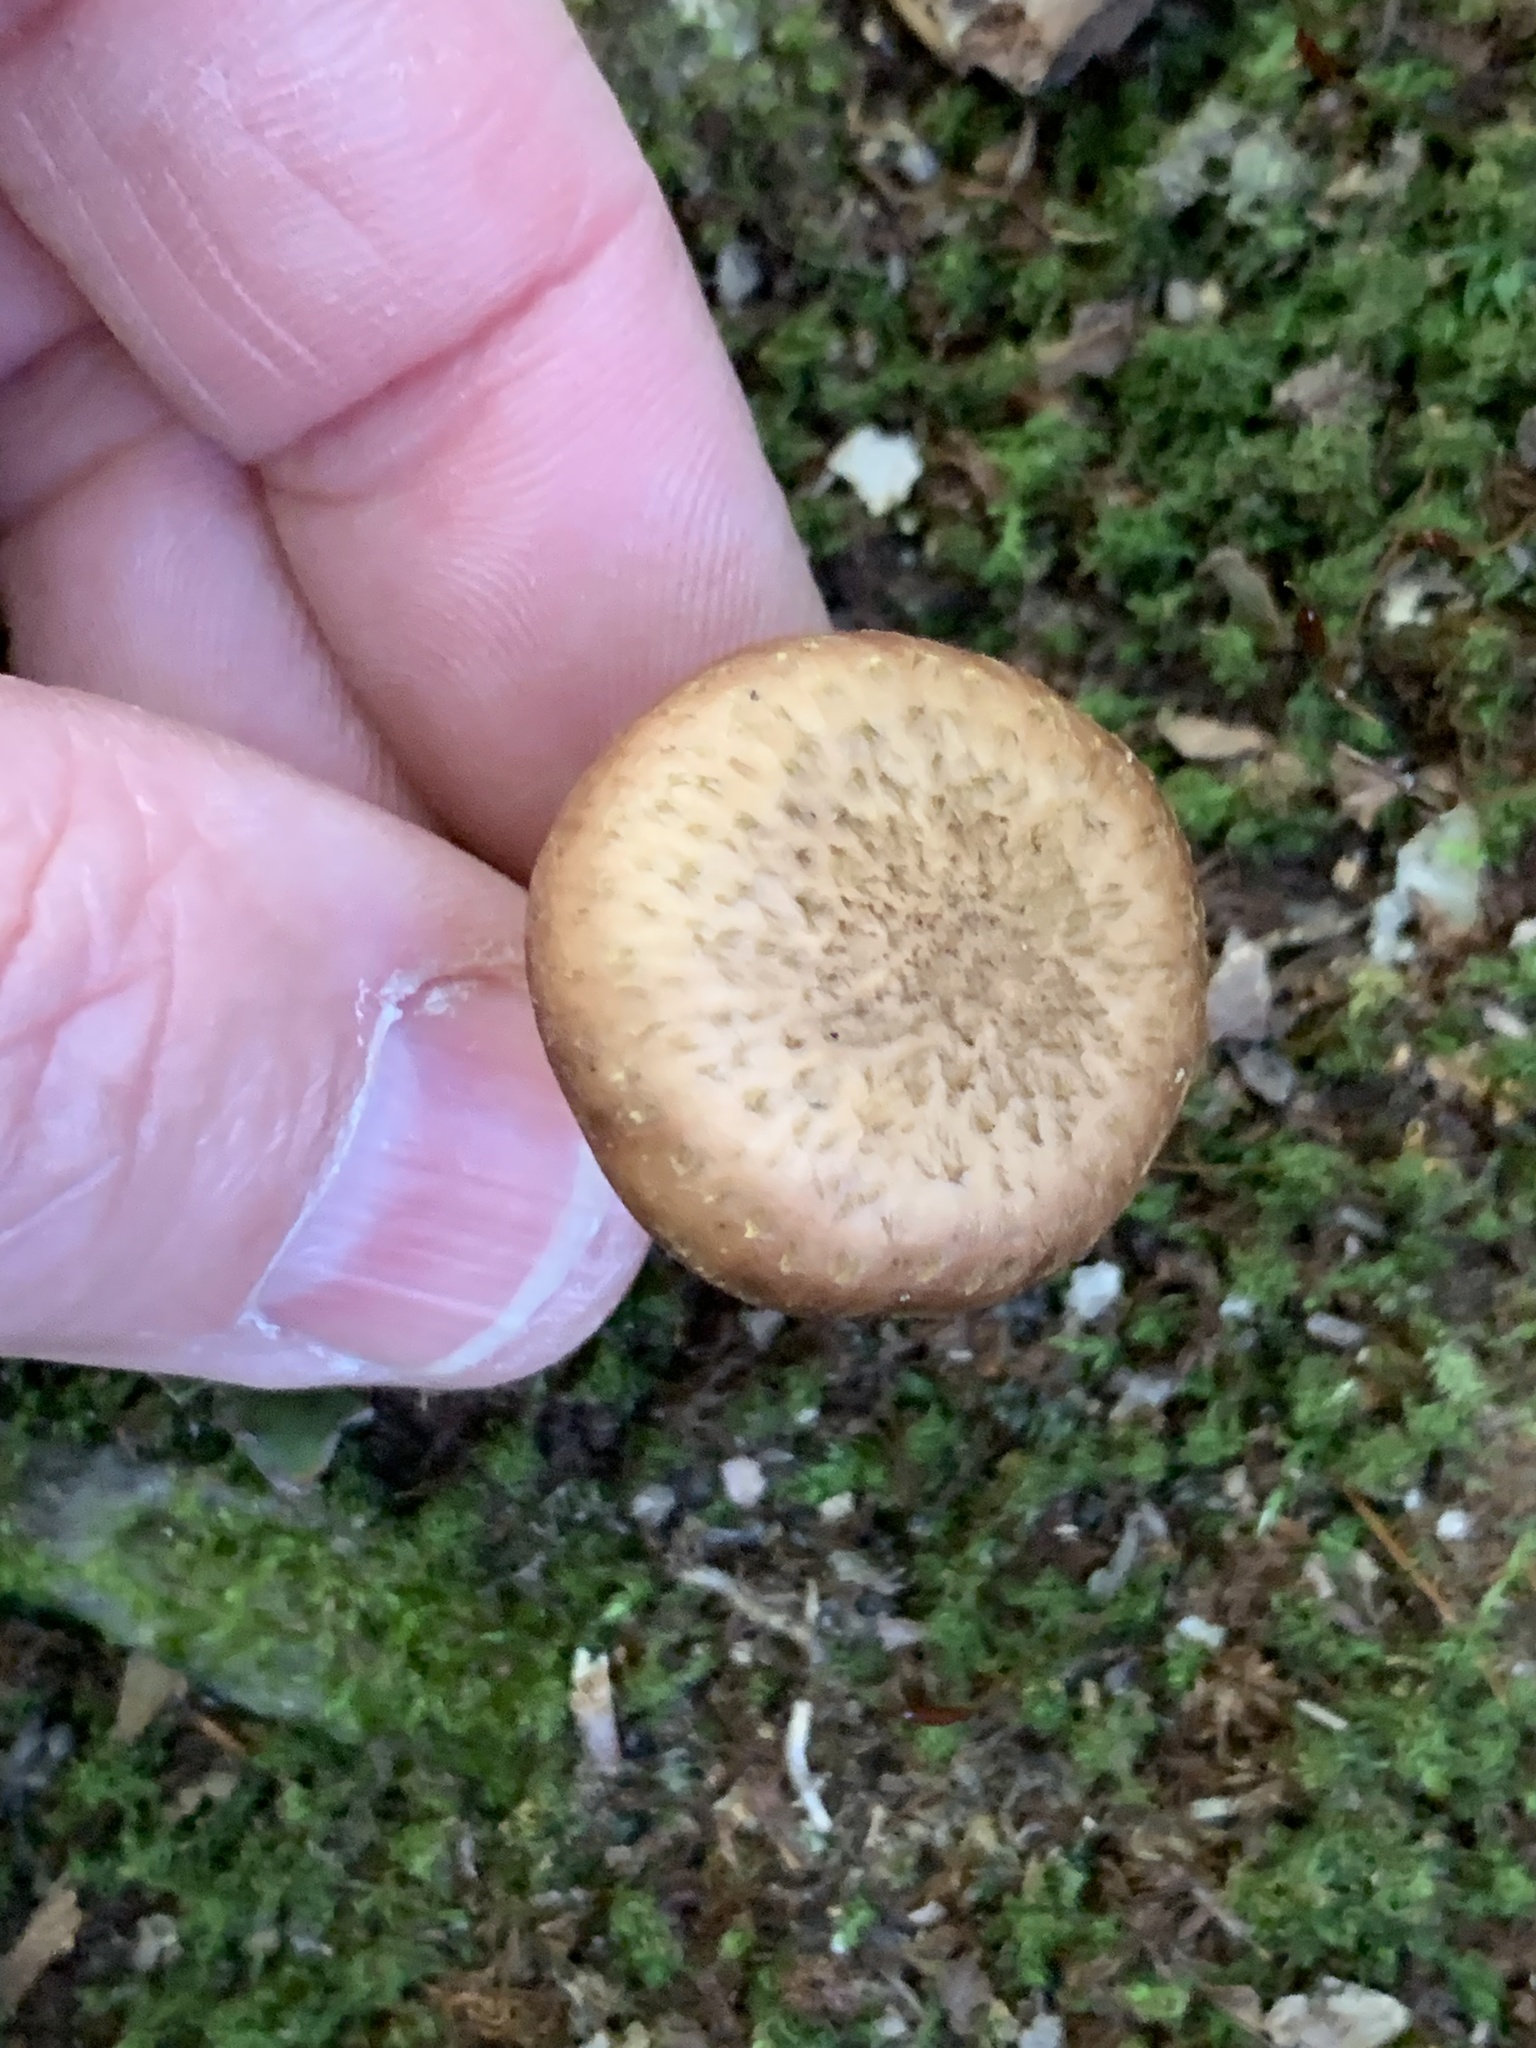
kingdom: Fungi
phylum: Basidiomycota
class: Agaricomycetes
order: Agaricales
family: Physalacriaceae
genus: Armillaria
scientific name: Armillaria gallica
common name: Bulbous honey fungus
